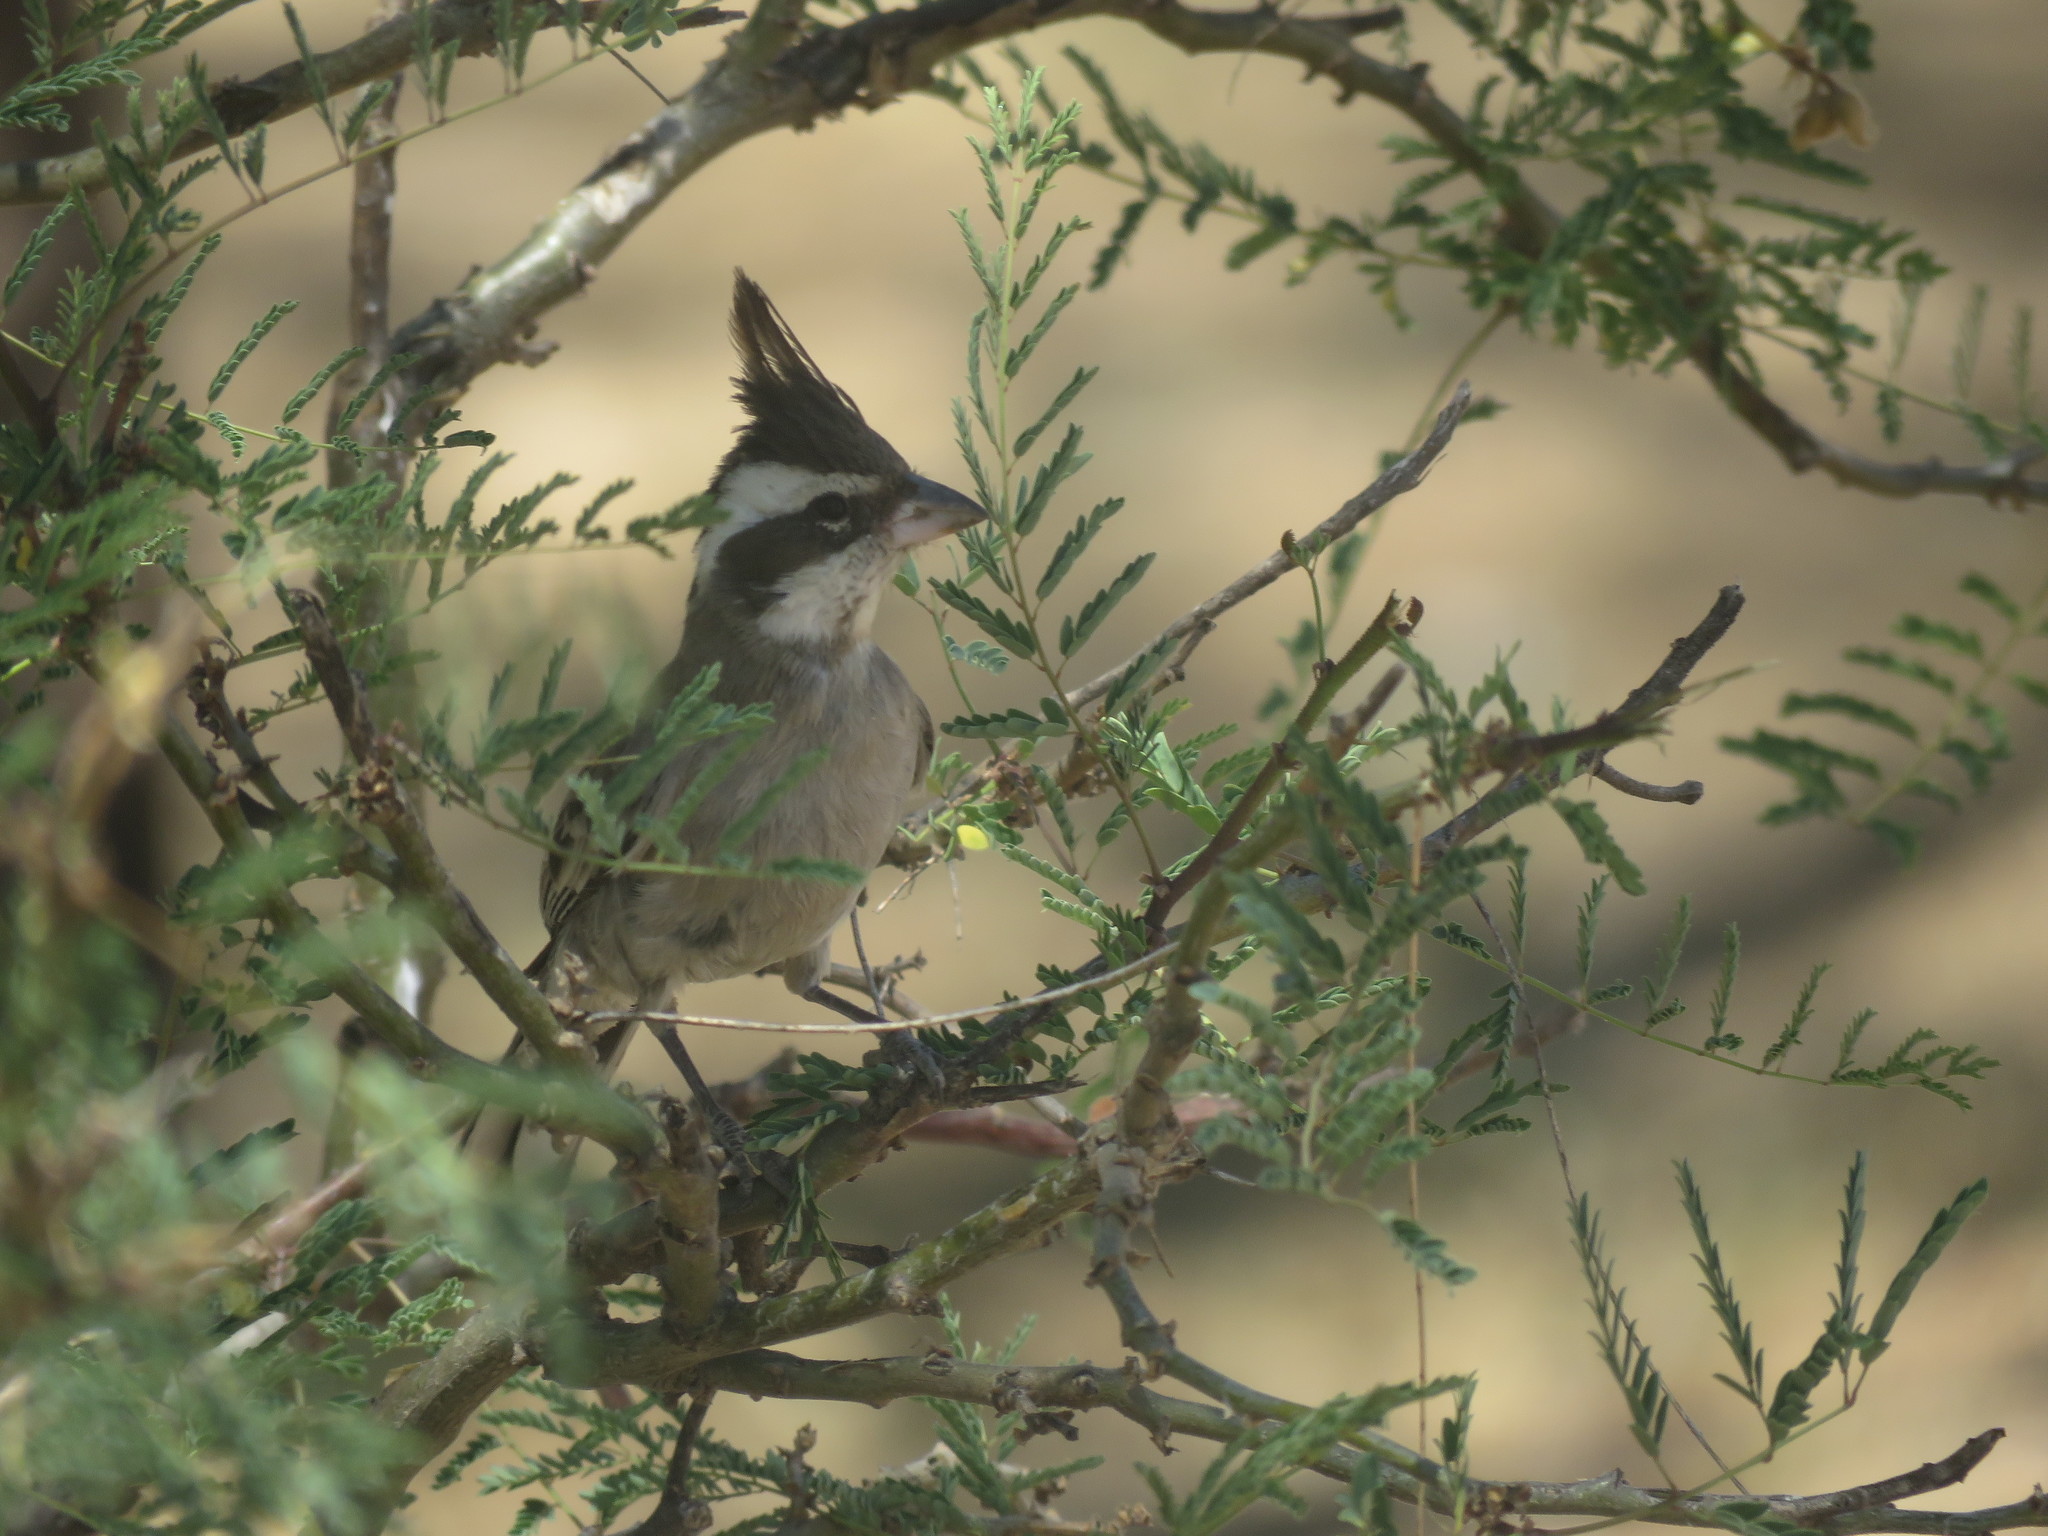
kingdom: Animalia
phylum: Chordata
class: Aves
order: Passeriformes
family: Thraupidae
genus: Lophospingus
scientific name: Lophospingus pusillus
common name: Black-crested finch
